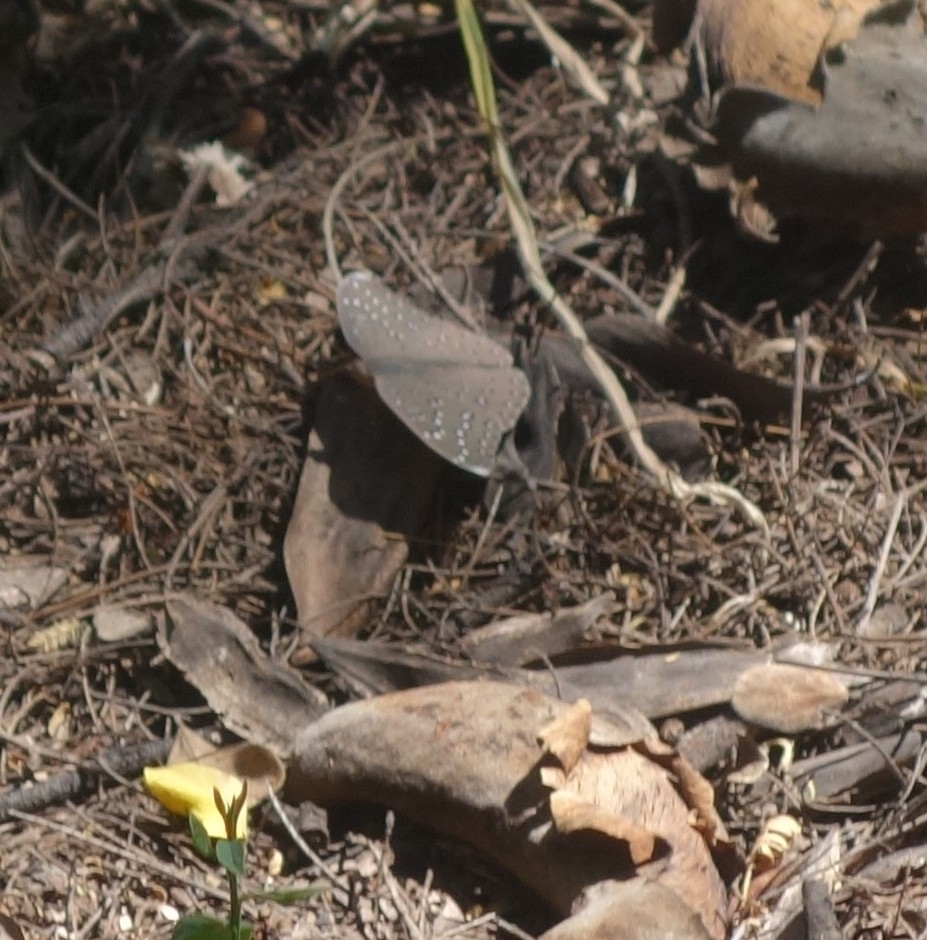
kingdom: Animalia
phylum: Arthropoda
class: Insecta
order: Lepidoptera
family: Nymphalidae
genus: Hamanumida
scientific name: Hamanumida daedalus
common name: Guinea-fowl butterfly
